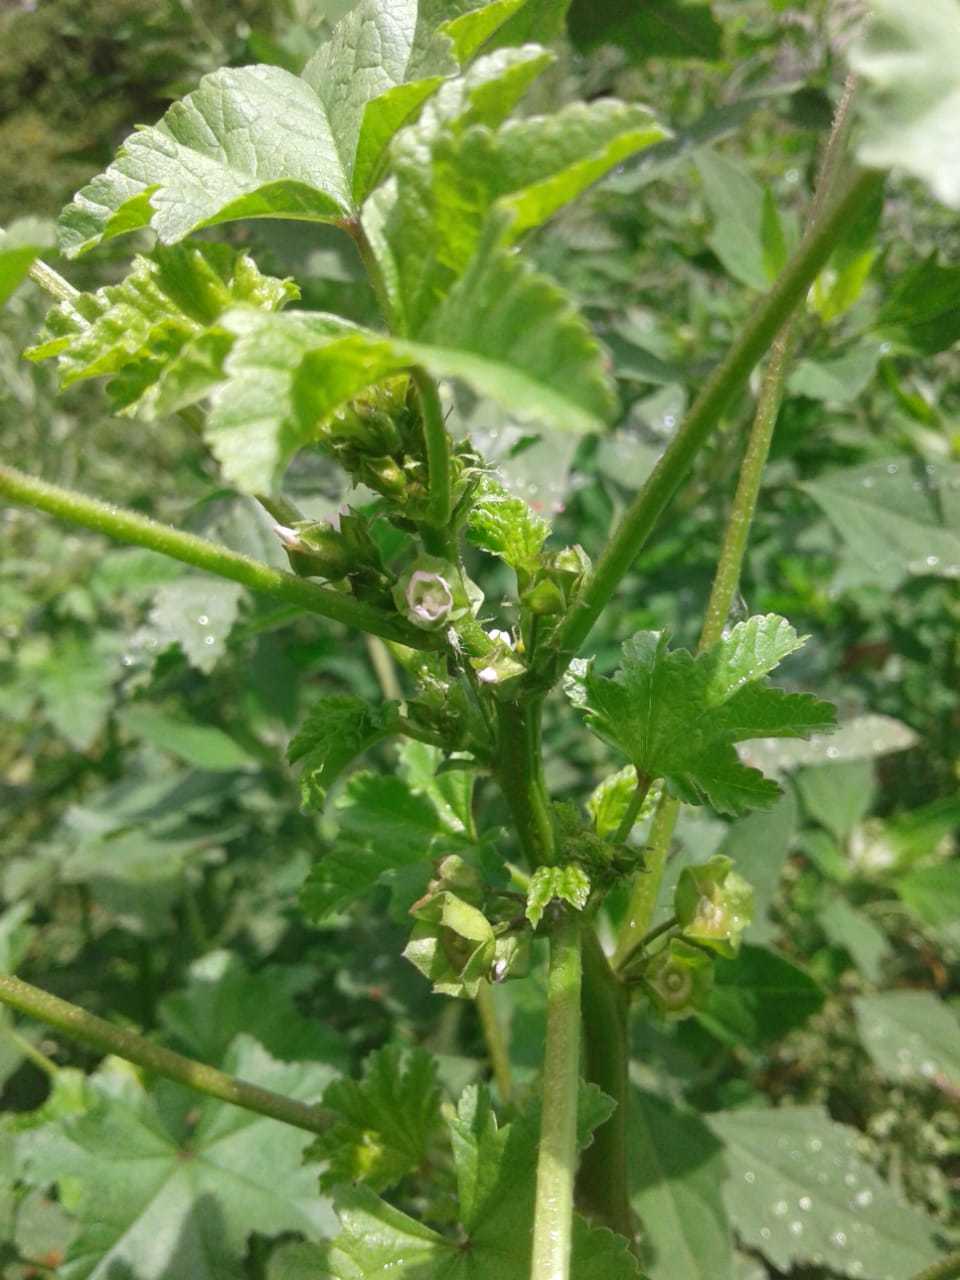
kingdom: Plantae
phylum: Tracheophyta
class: Magnoliopsida
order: Malvales
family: Malvaceae
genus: Malva
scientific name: Malva parviflora
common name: Least mallow
